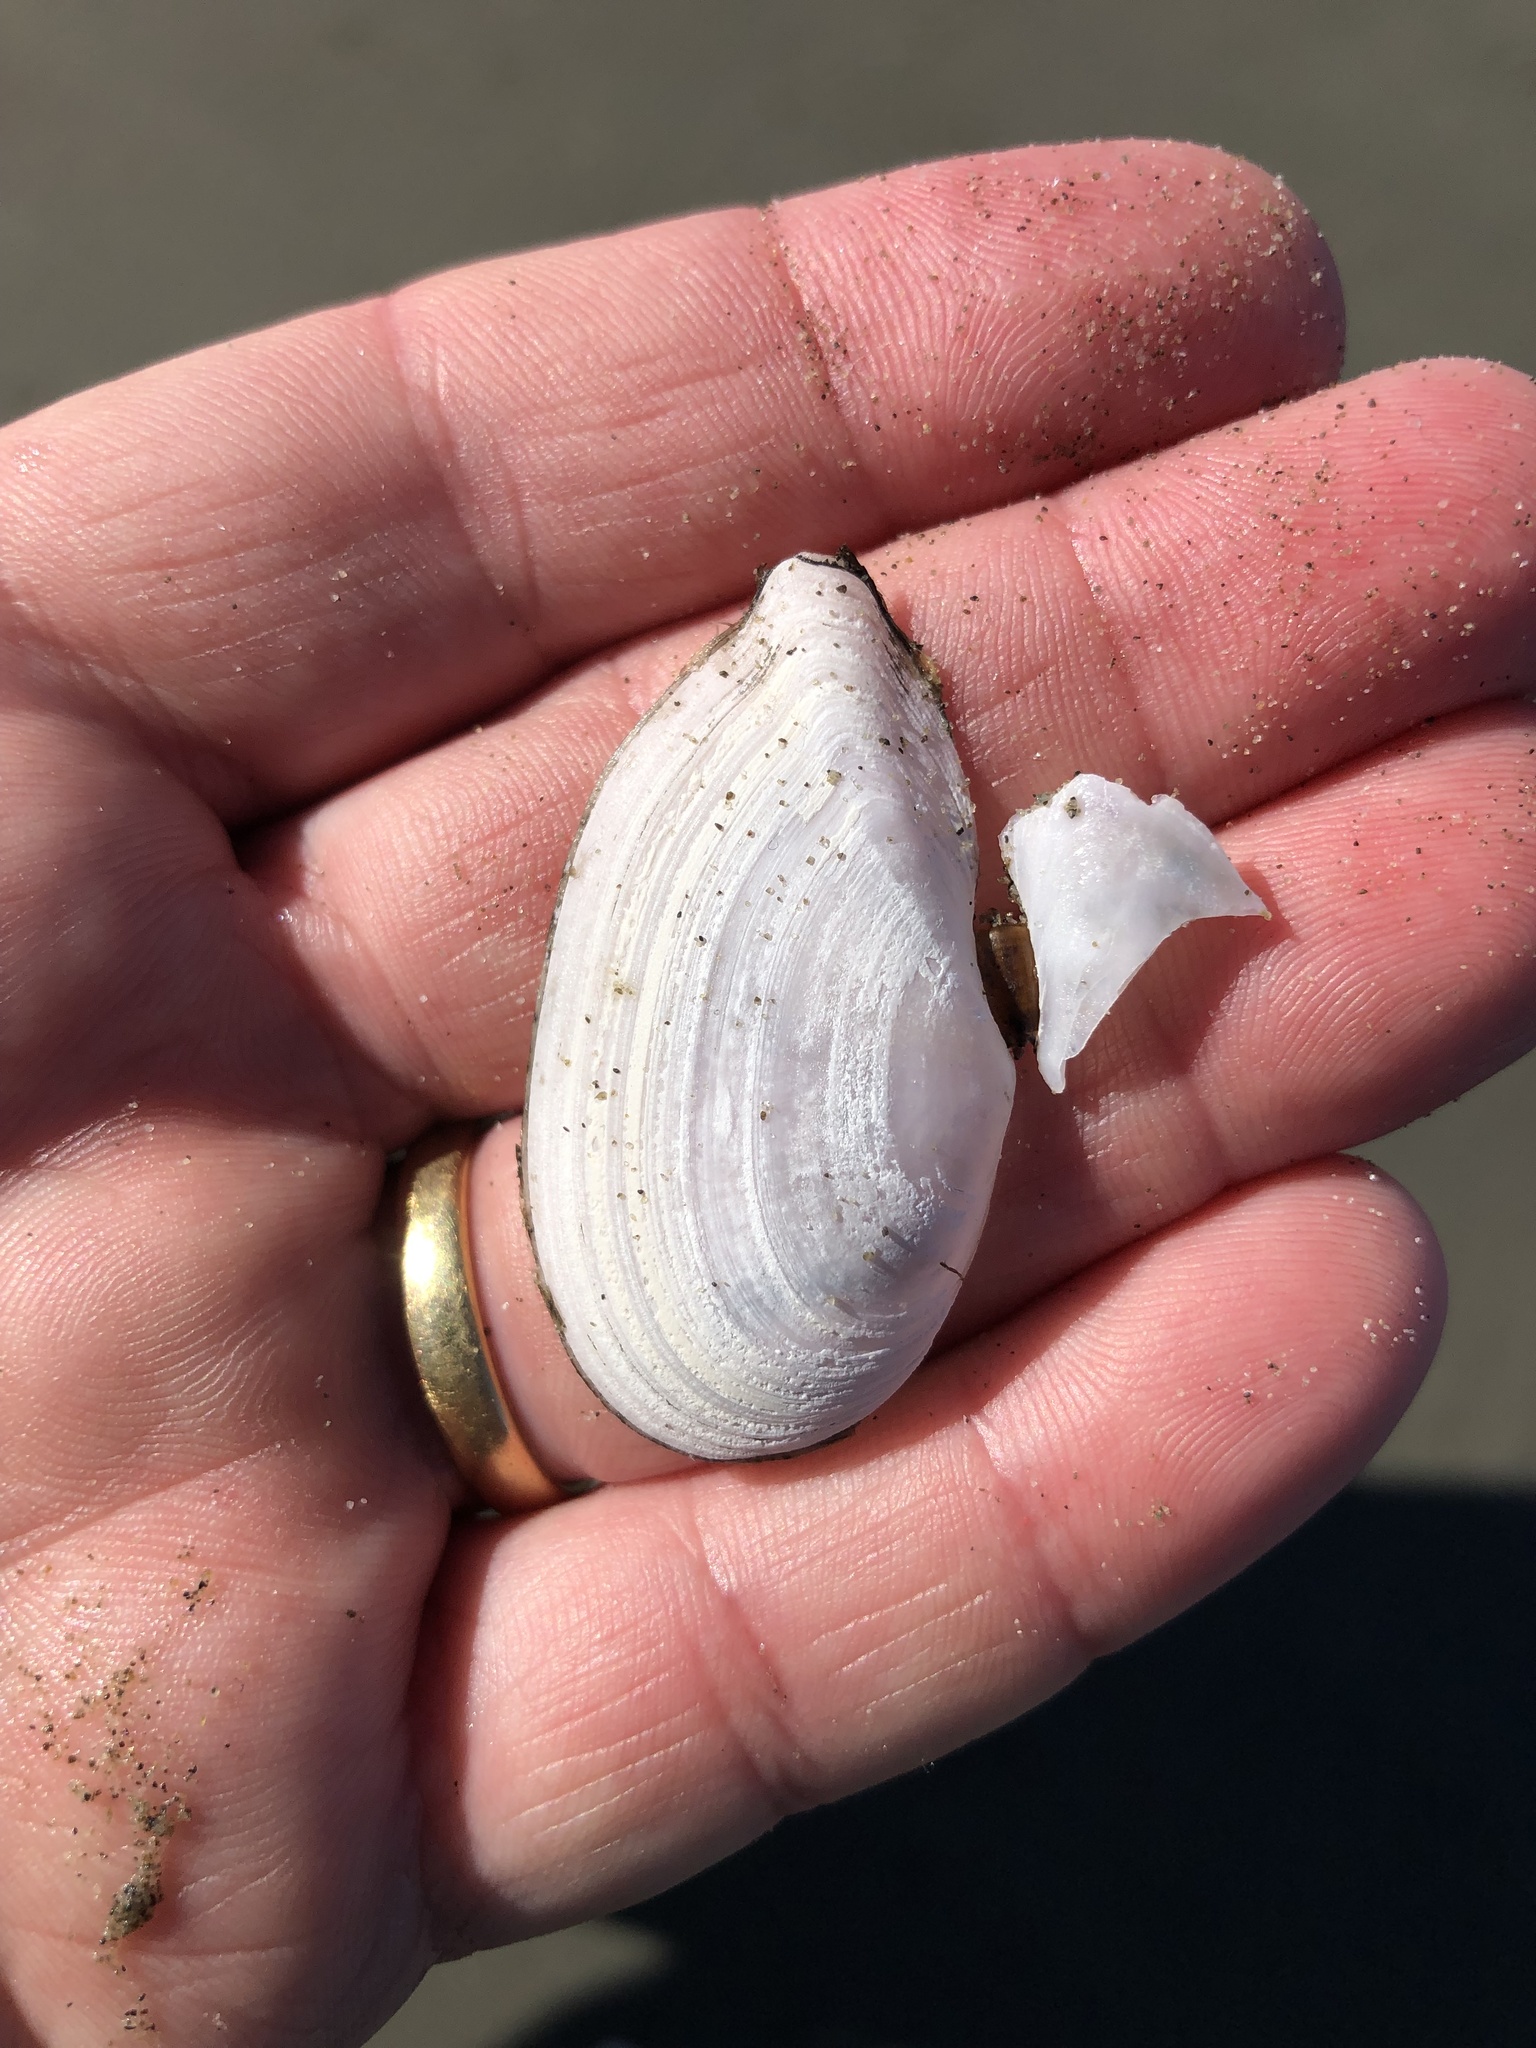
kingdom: Animalia
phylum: Mollusca
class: Bivalvia
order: Cardiida
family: Tellinidae
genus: Ardeamya
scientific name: Ardeamya spenceri
